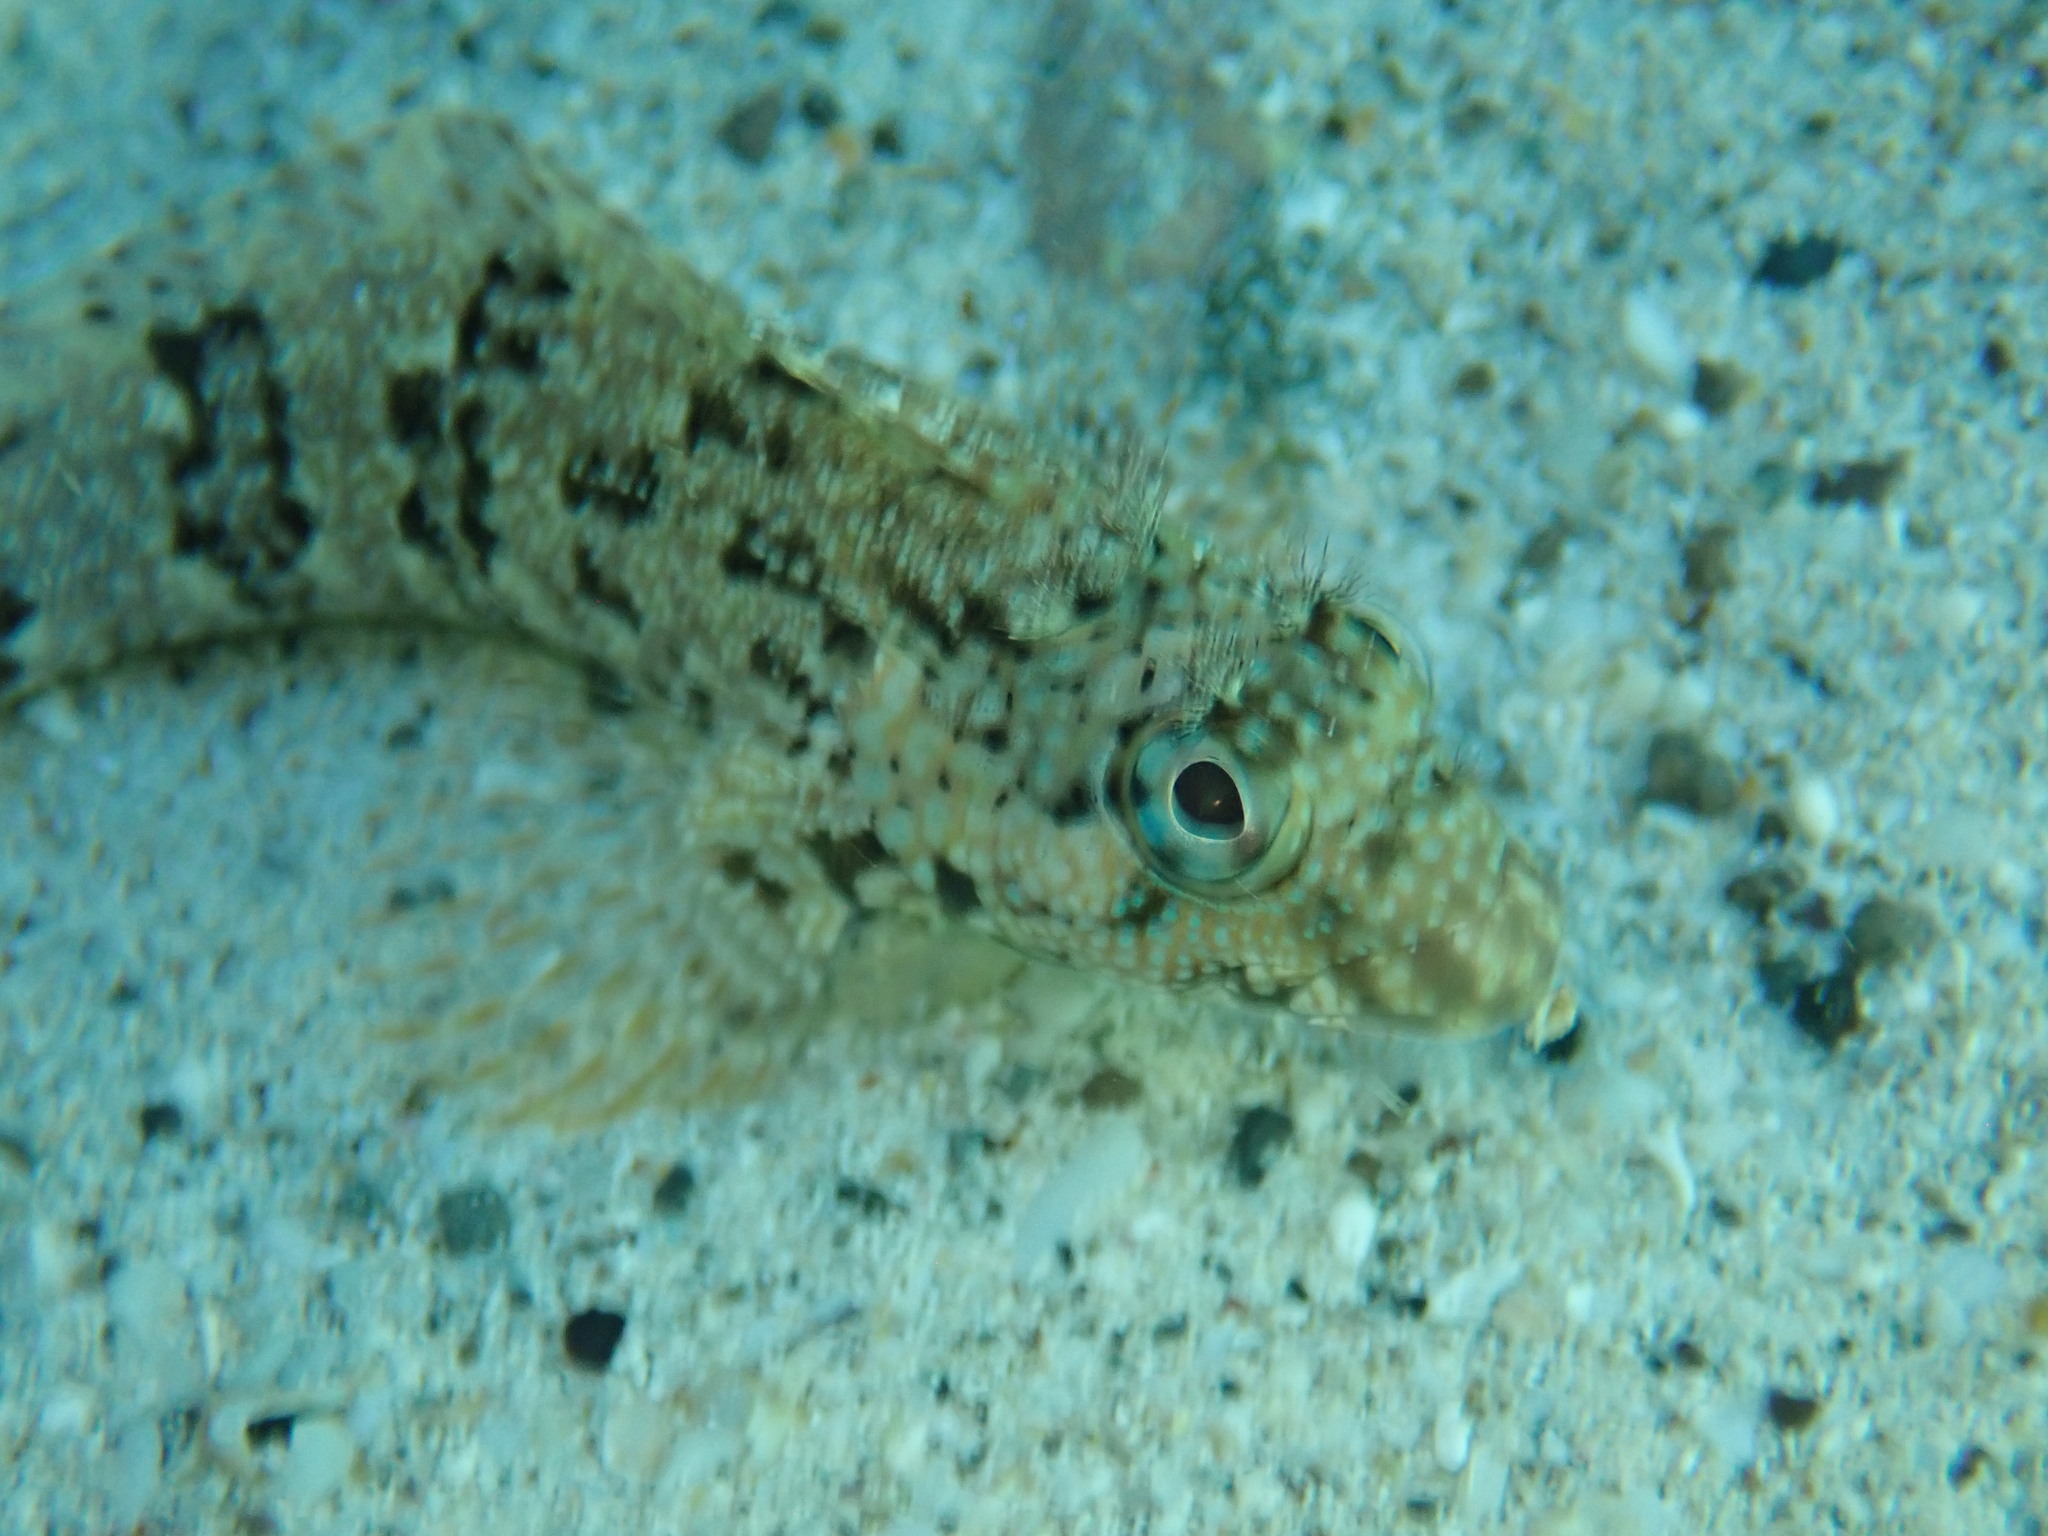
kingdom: Animalia
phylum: Chordata
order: Perciformes
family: Labrisomidae
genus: Labrisomus
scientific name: Labrisomus xanti
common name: Largemouth blenny
